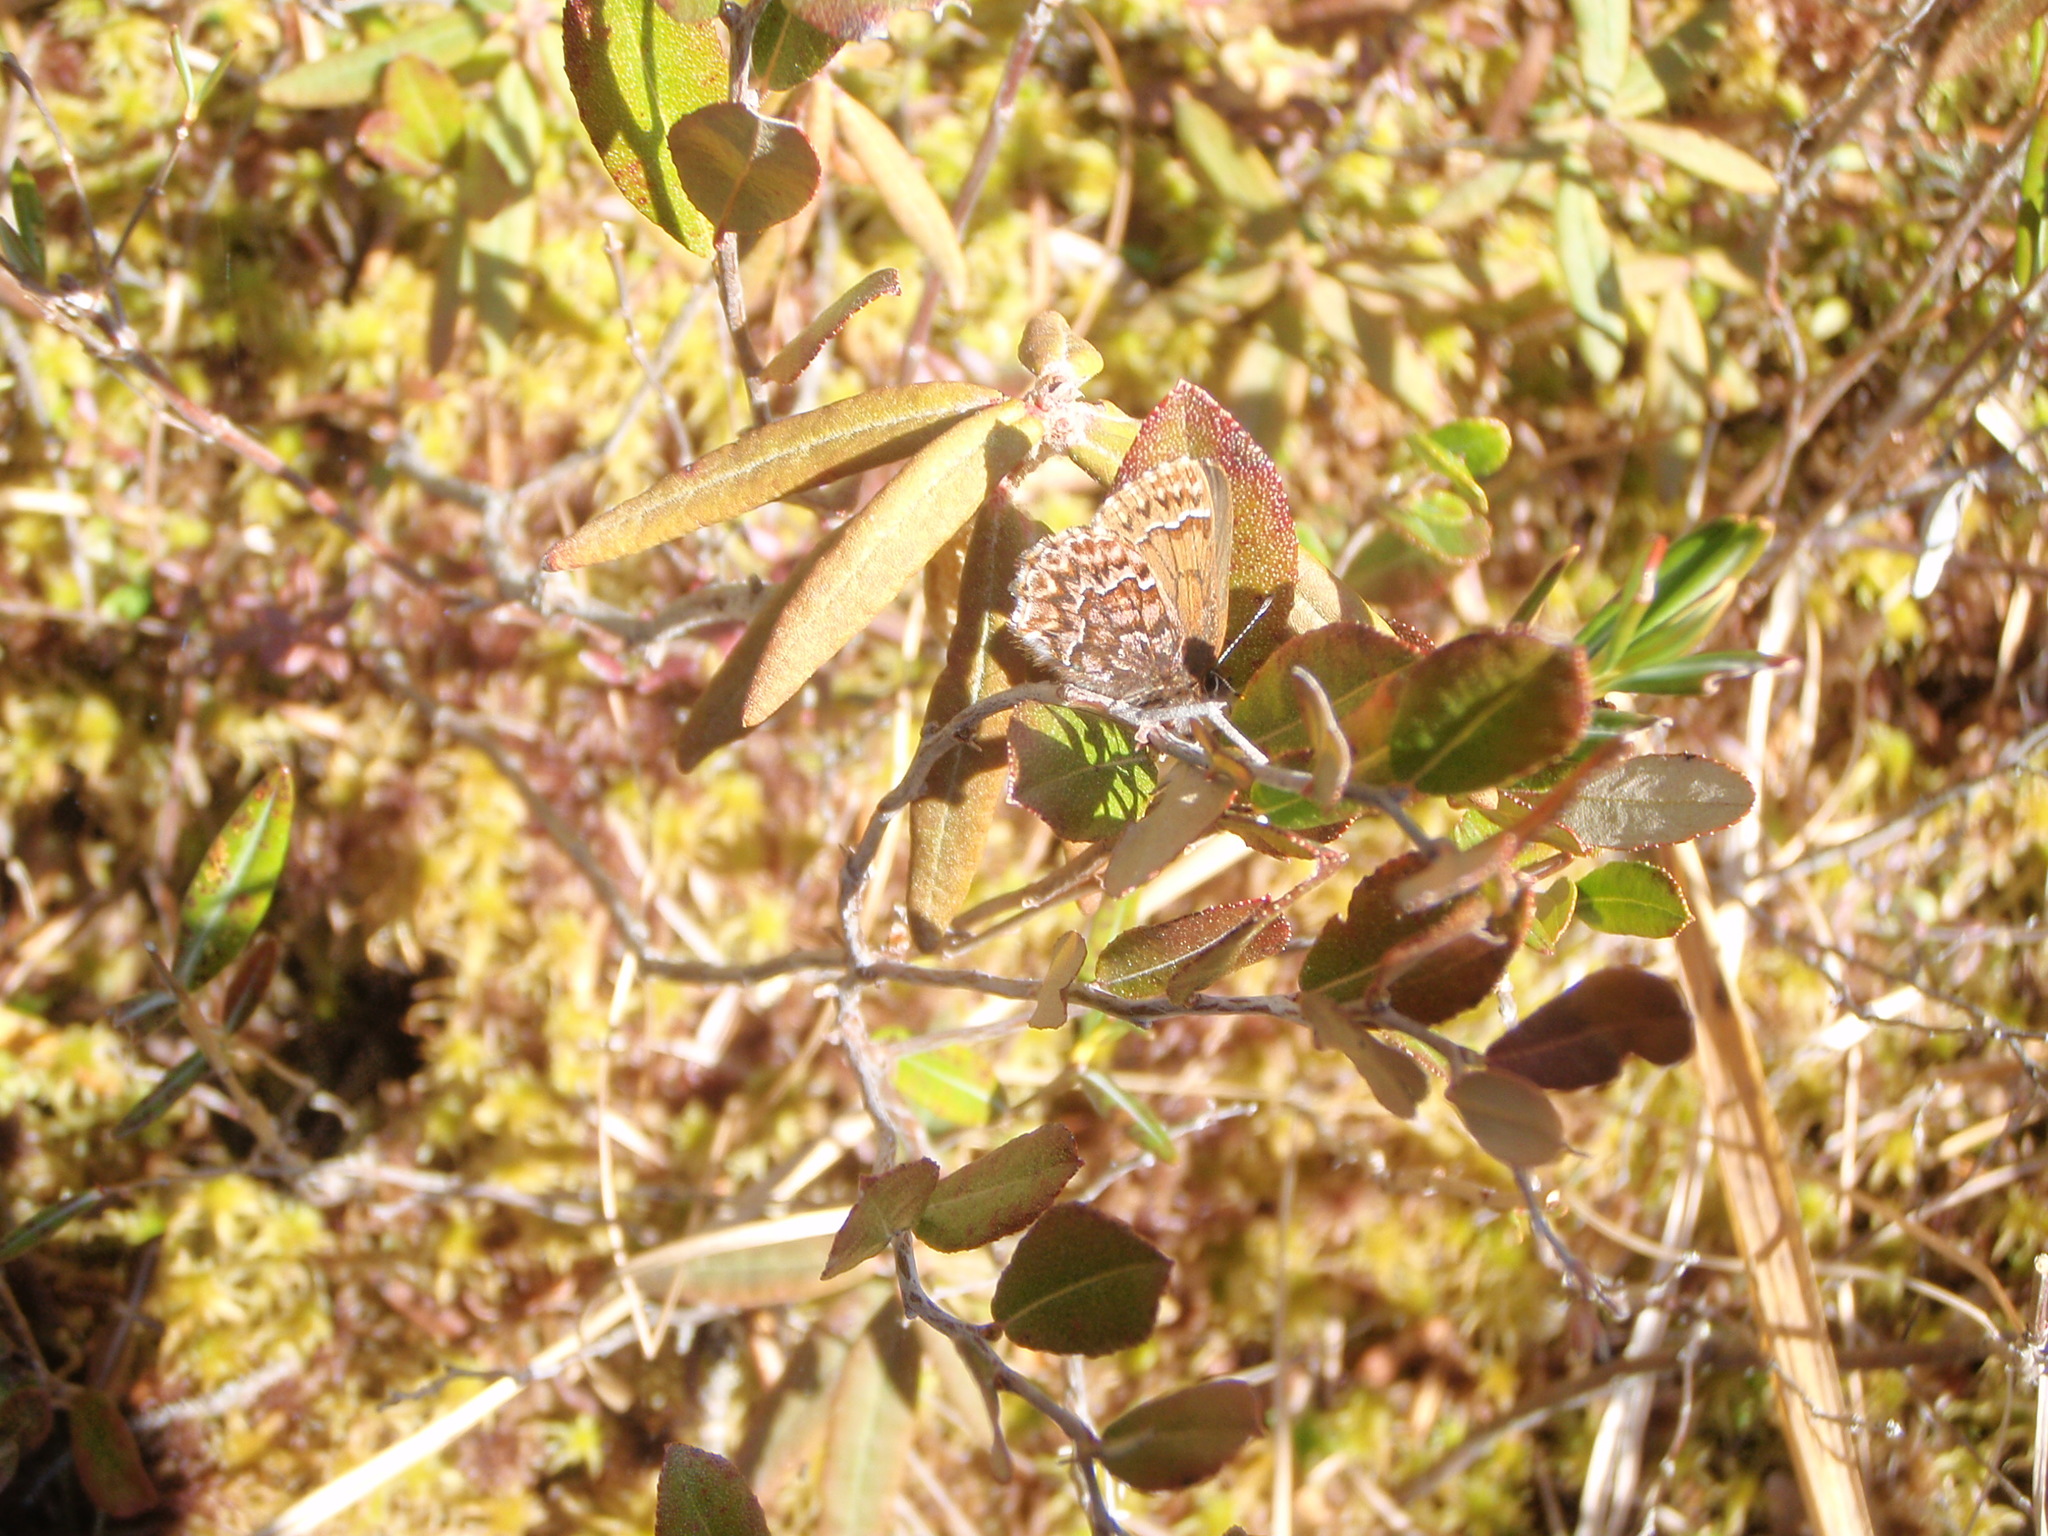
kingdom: Animalia
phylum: Arthropoda
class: Insecta
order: Lepidoptera
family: Lycaenidae
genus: Incisalia
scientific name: Incisalia eryphon
